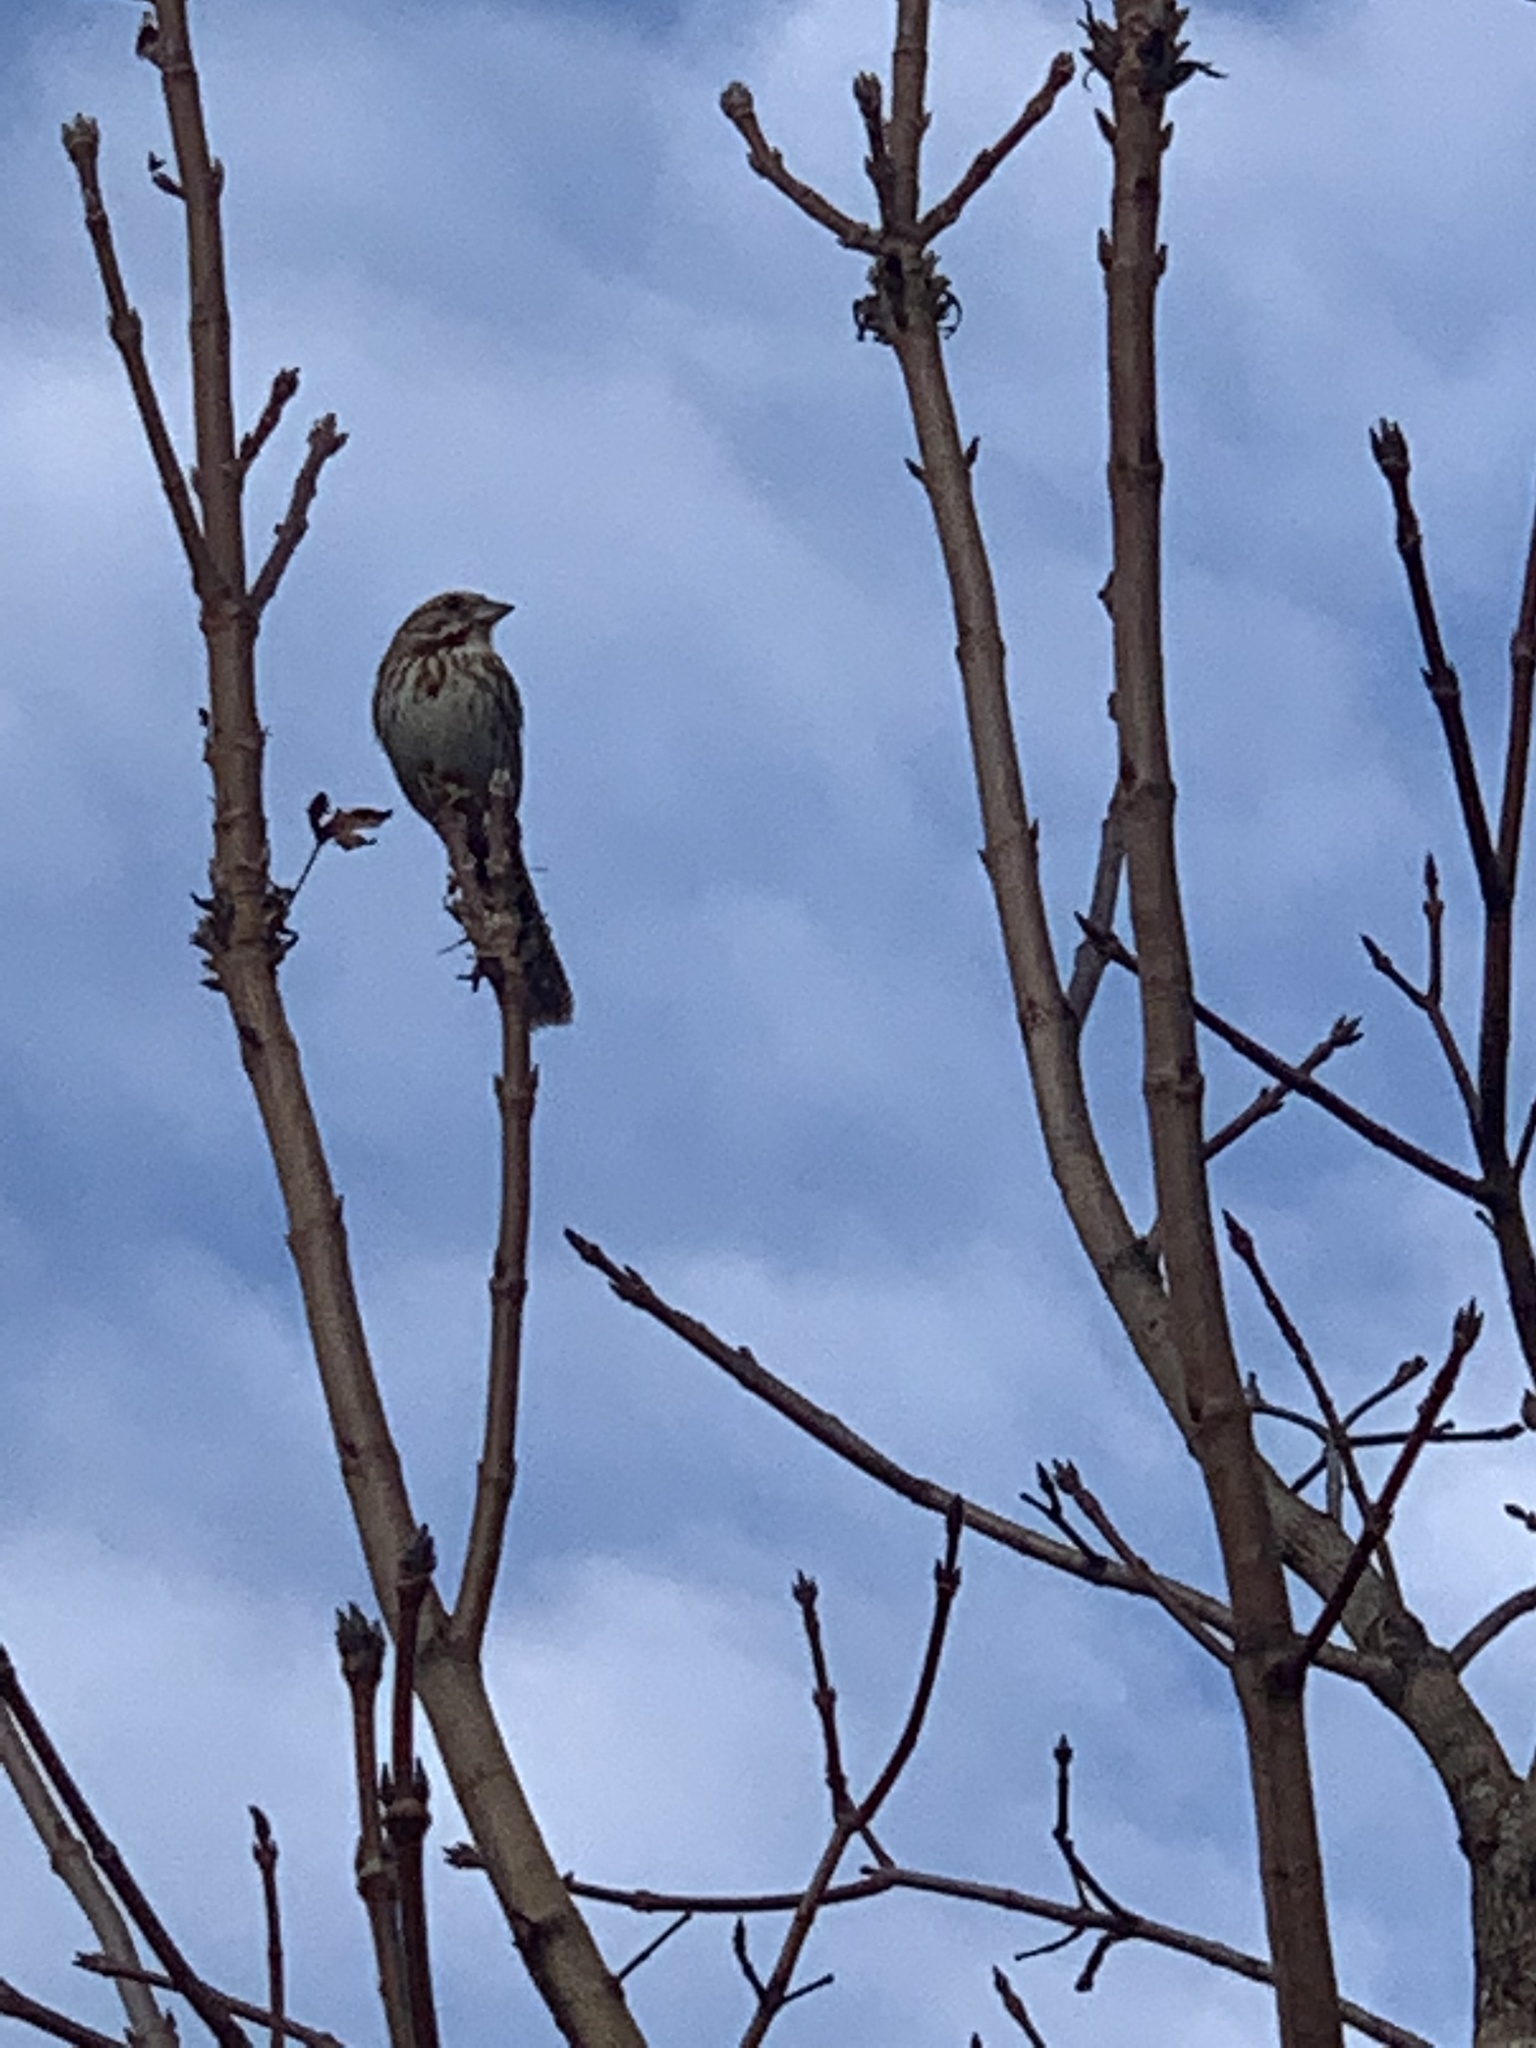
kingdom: Animalia
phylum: Chordata
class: Aves
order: Passeriformes
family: Passerellidae
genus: Melospiza
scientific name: Melospiza melodia
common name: Song sparrow
